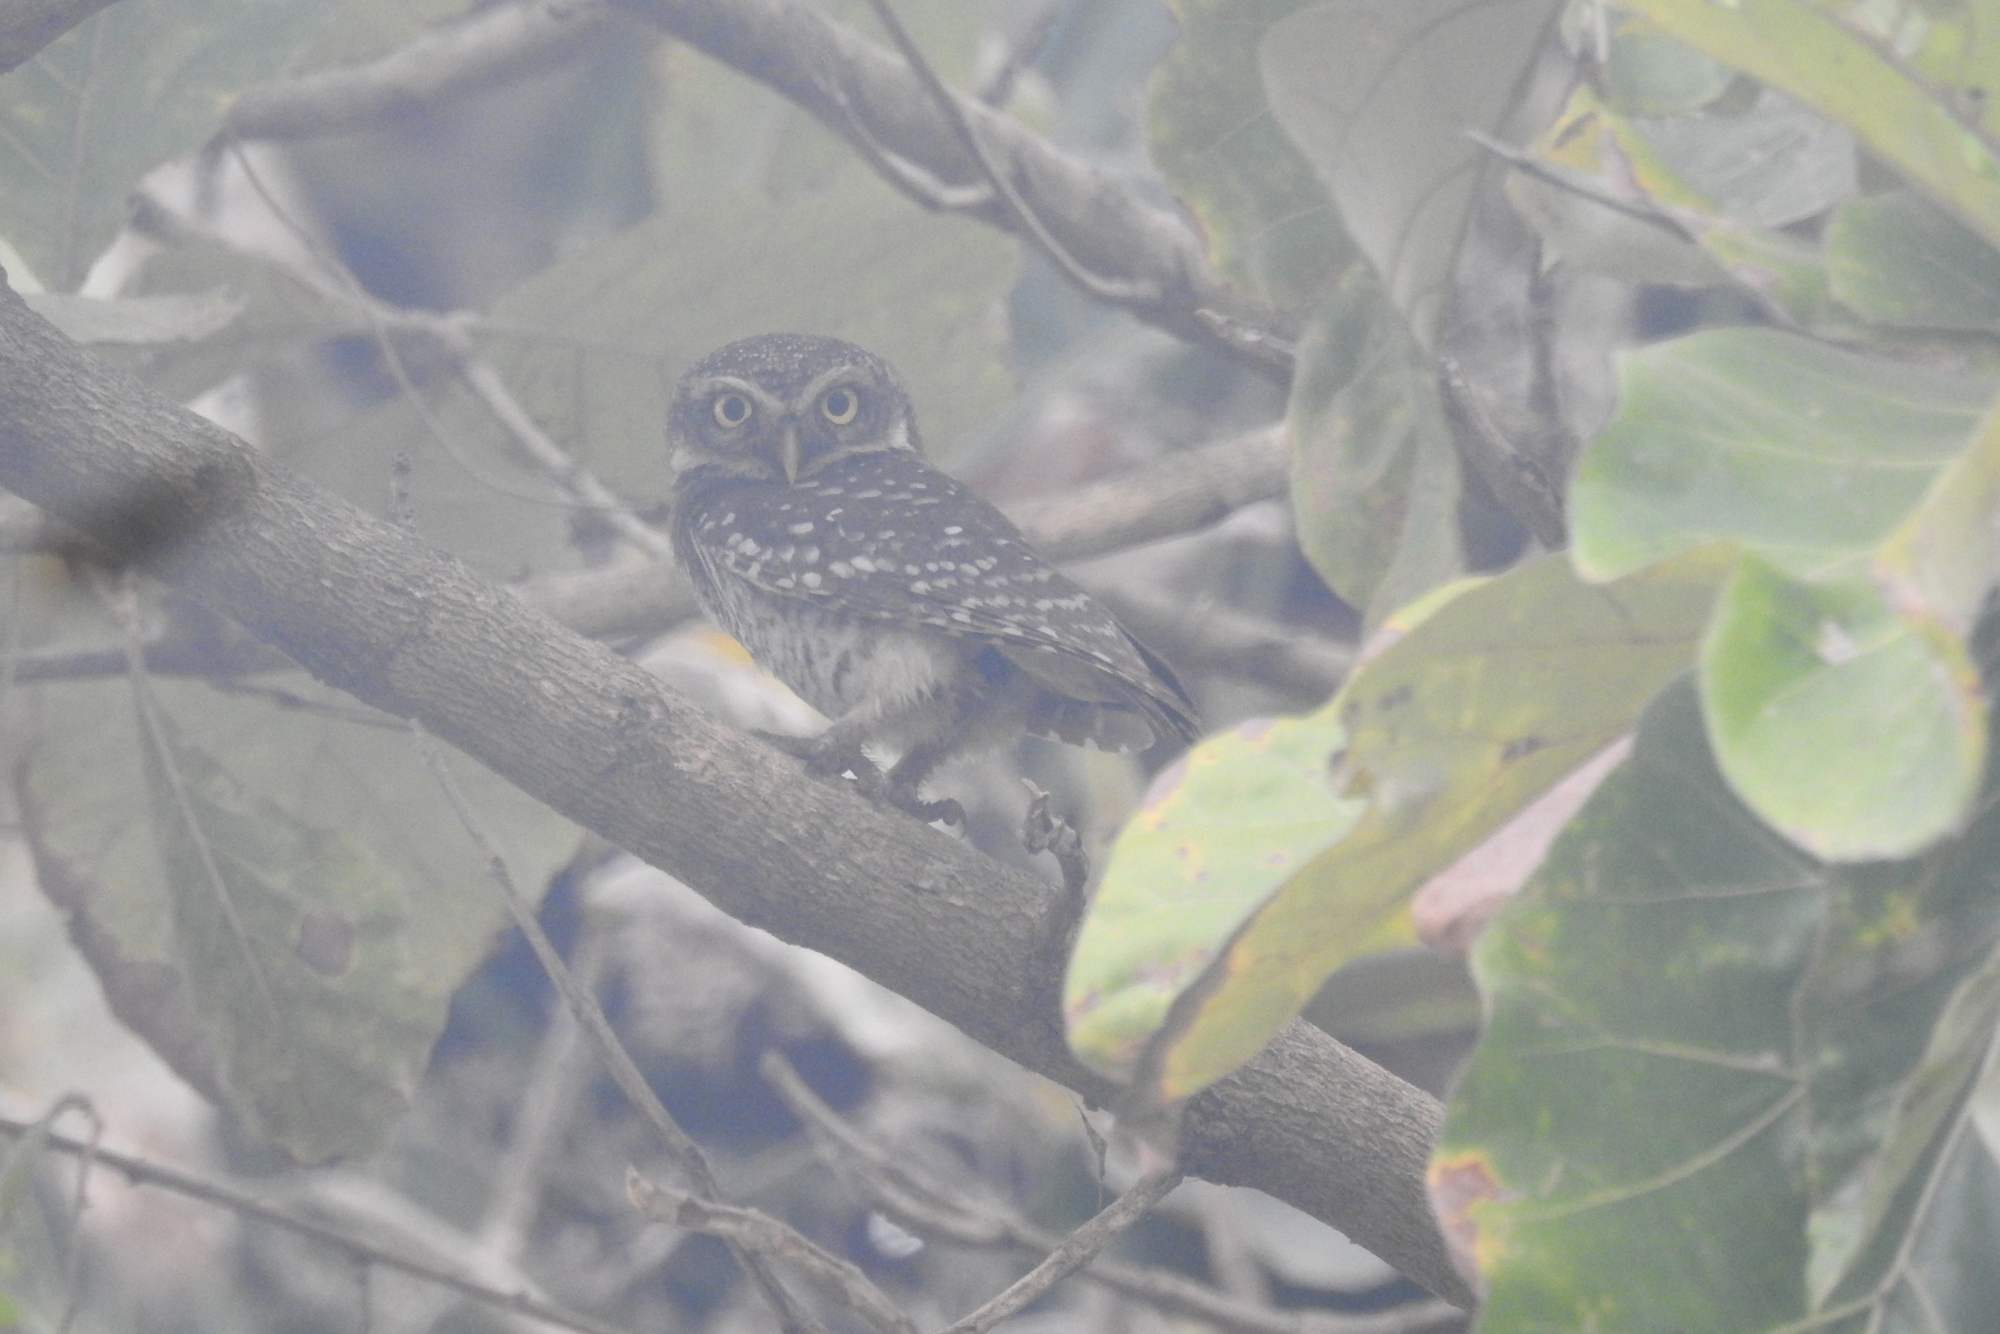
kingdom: Animalia
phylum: Chordata
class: Aves
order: Strigiformes
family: Strigidae
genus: Athene
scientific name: Athene brama
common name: Spotted owlet
